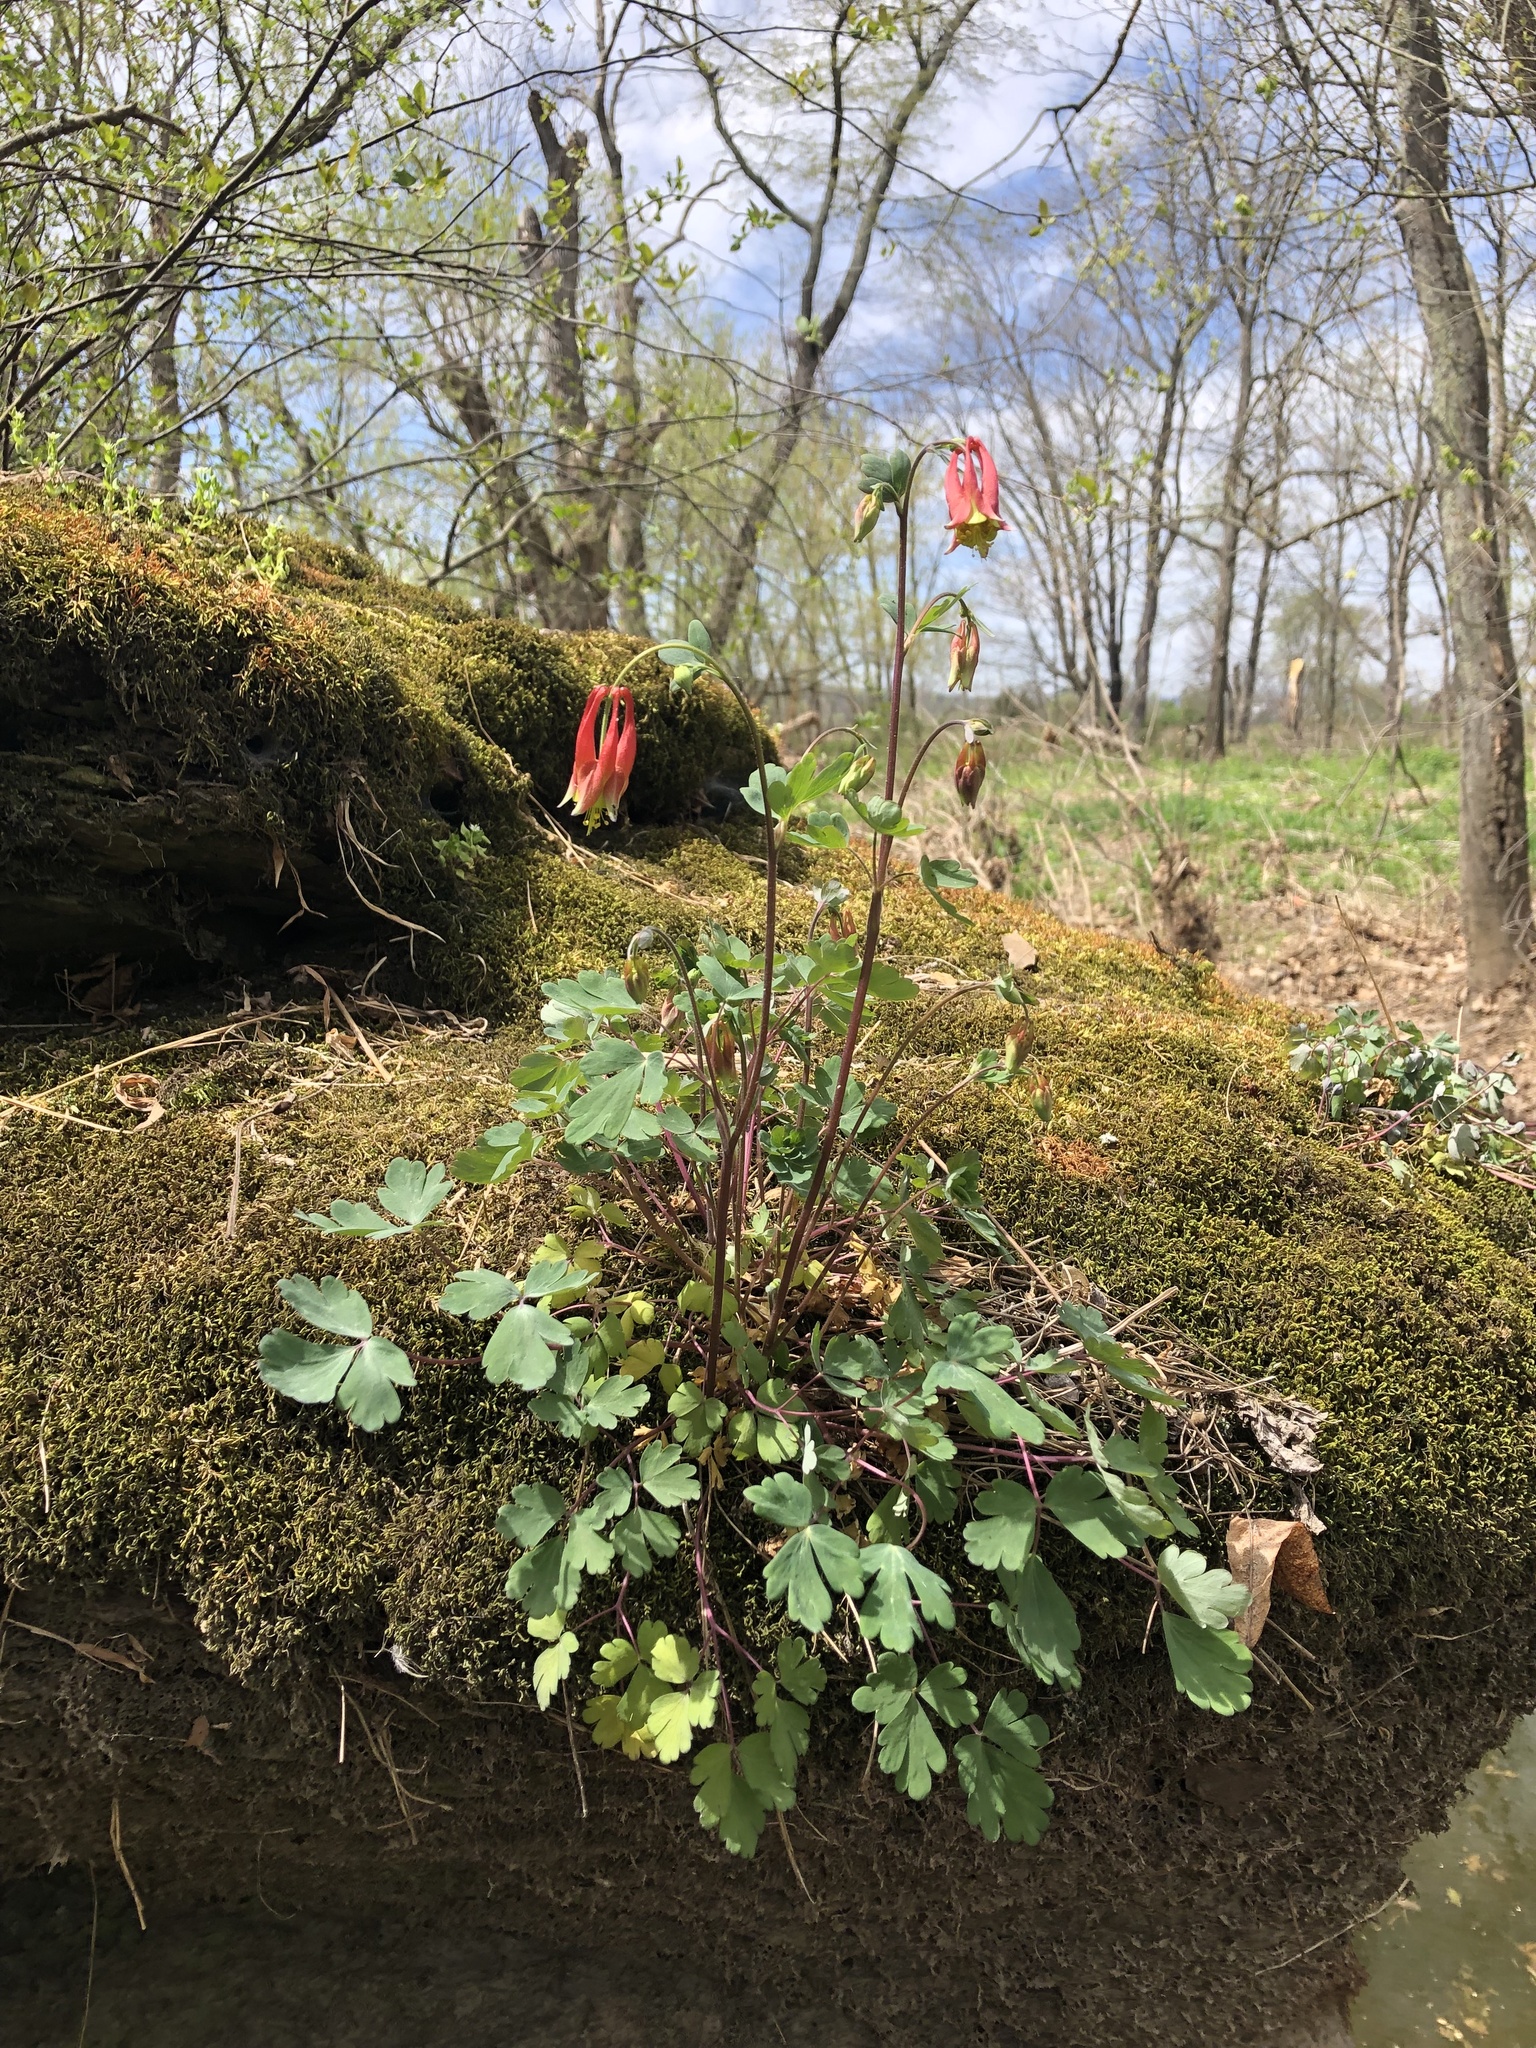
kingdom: Plantae
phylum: Tracheophyta
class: Magnoliopsida
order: Ranunculales
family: Ranunculaceae
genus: Aquilegia
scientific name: Aquilegia canadensis
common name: American columbine
